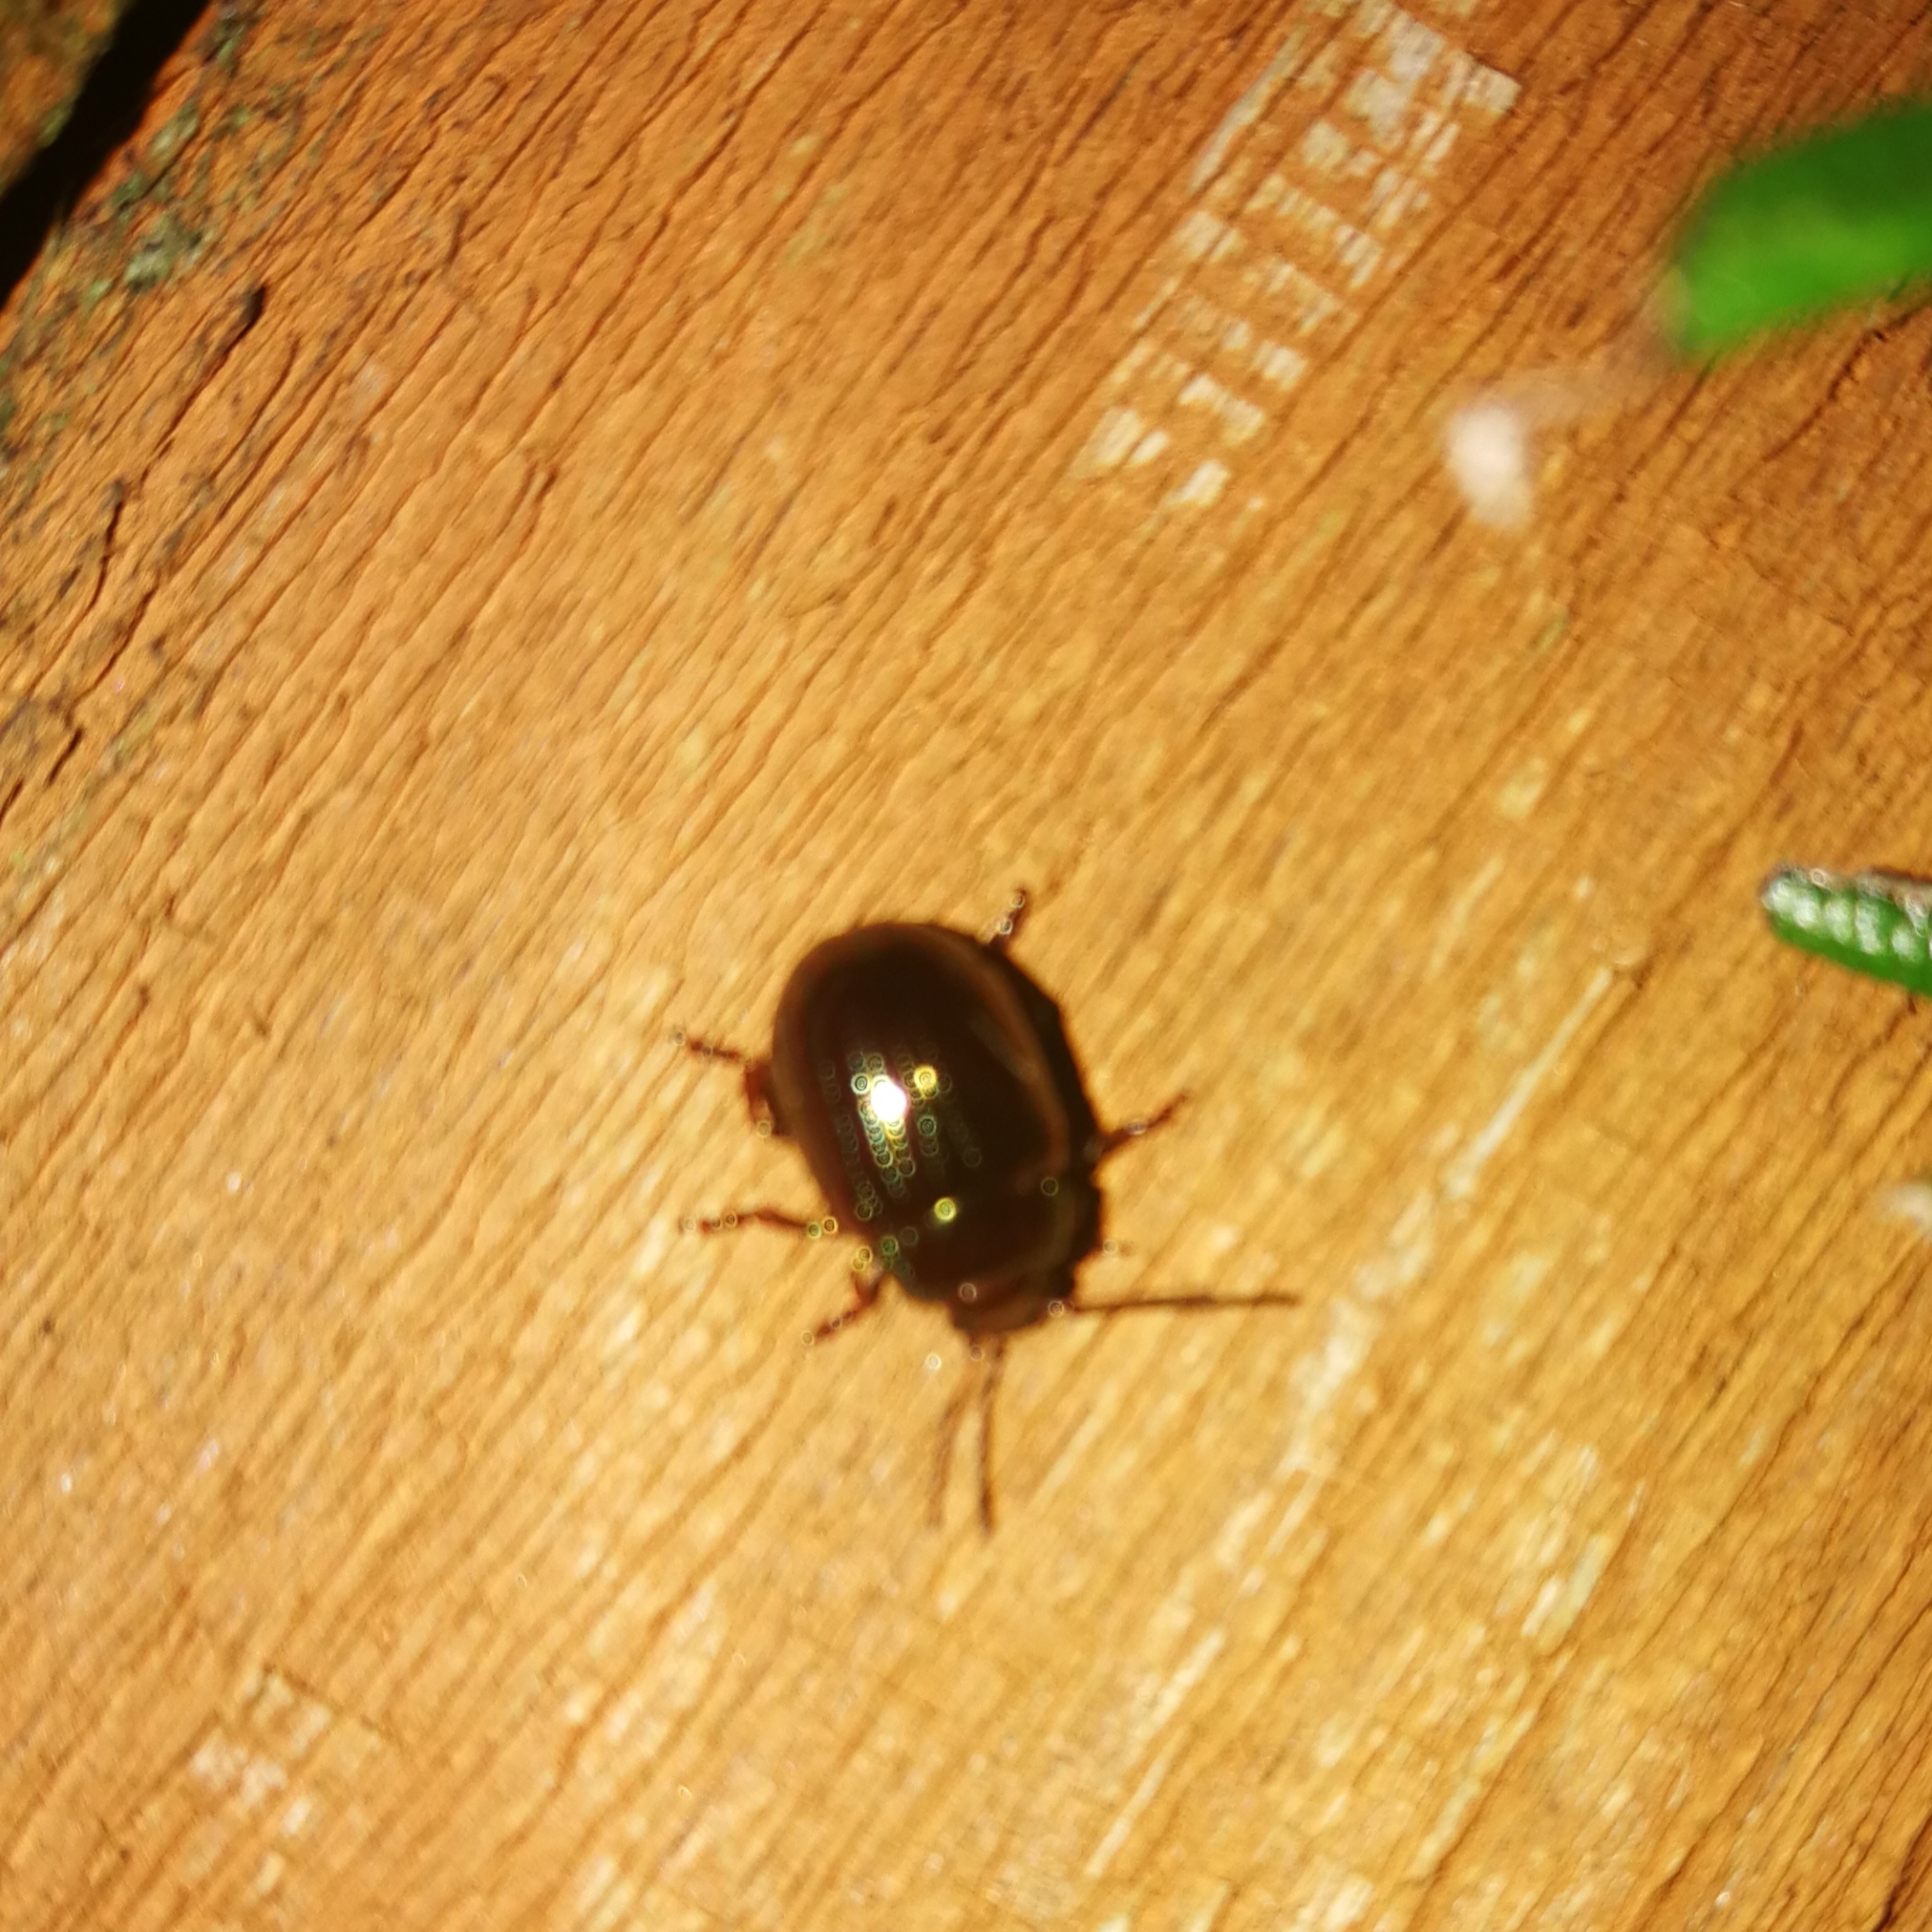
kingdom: Animalia
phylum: Arthropoda
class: Insecta
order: Coleoptera
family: Chrysomelidae
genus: Chrysolina
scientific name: Chrysolina americana
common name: Rosemary beetle
